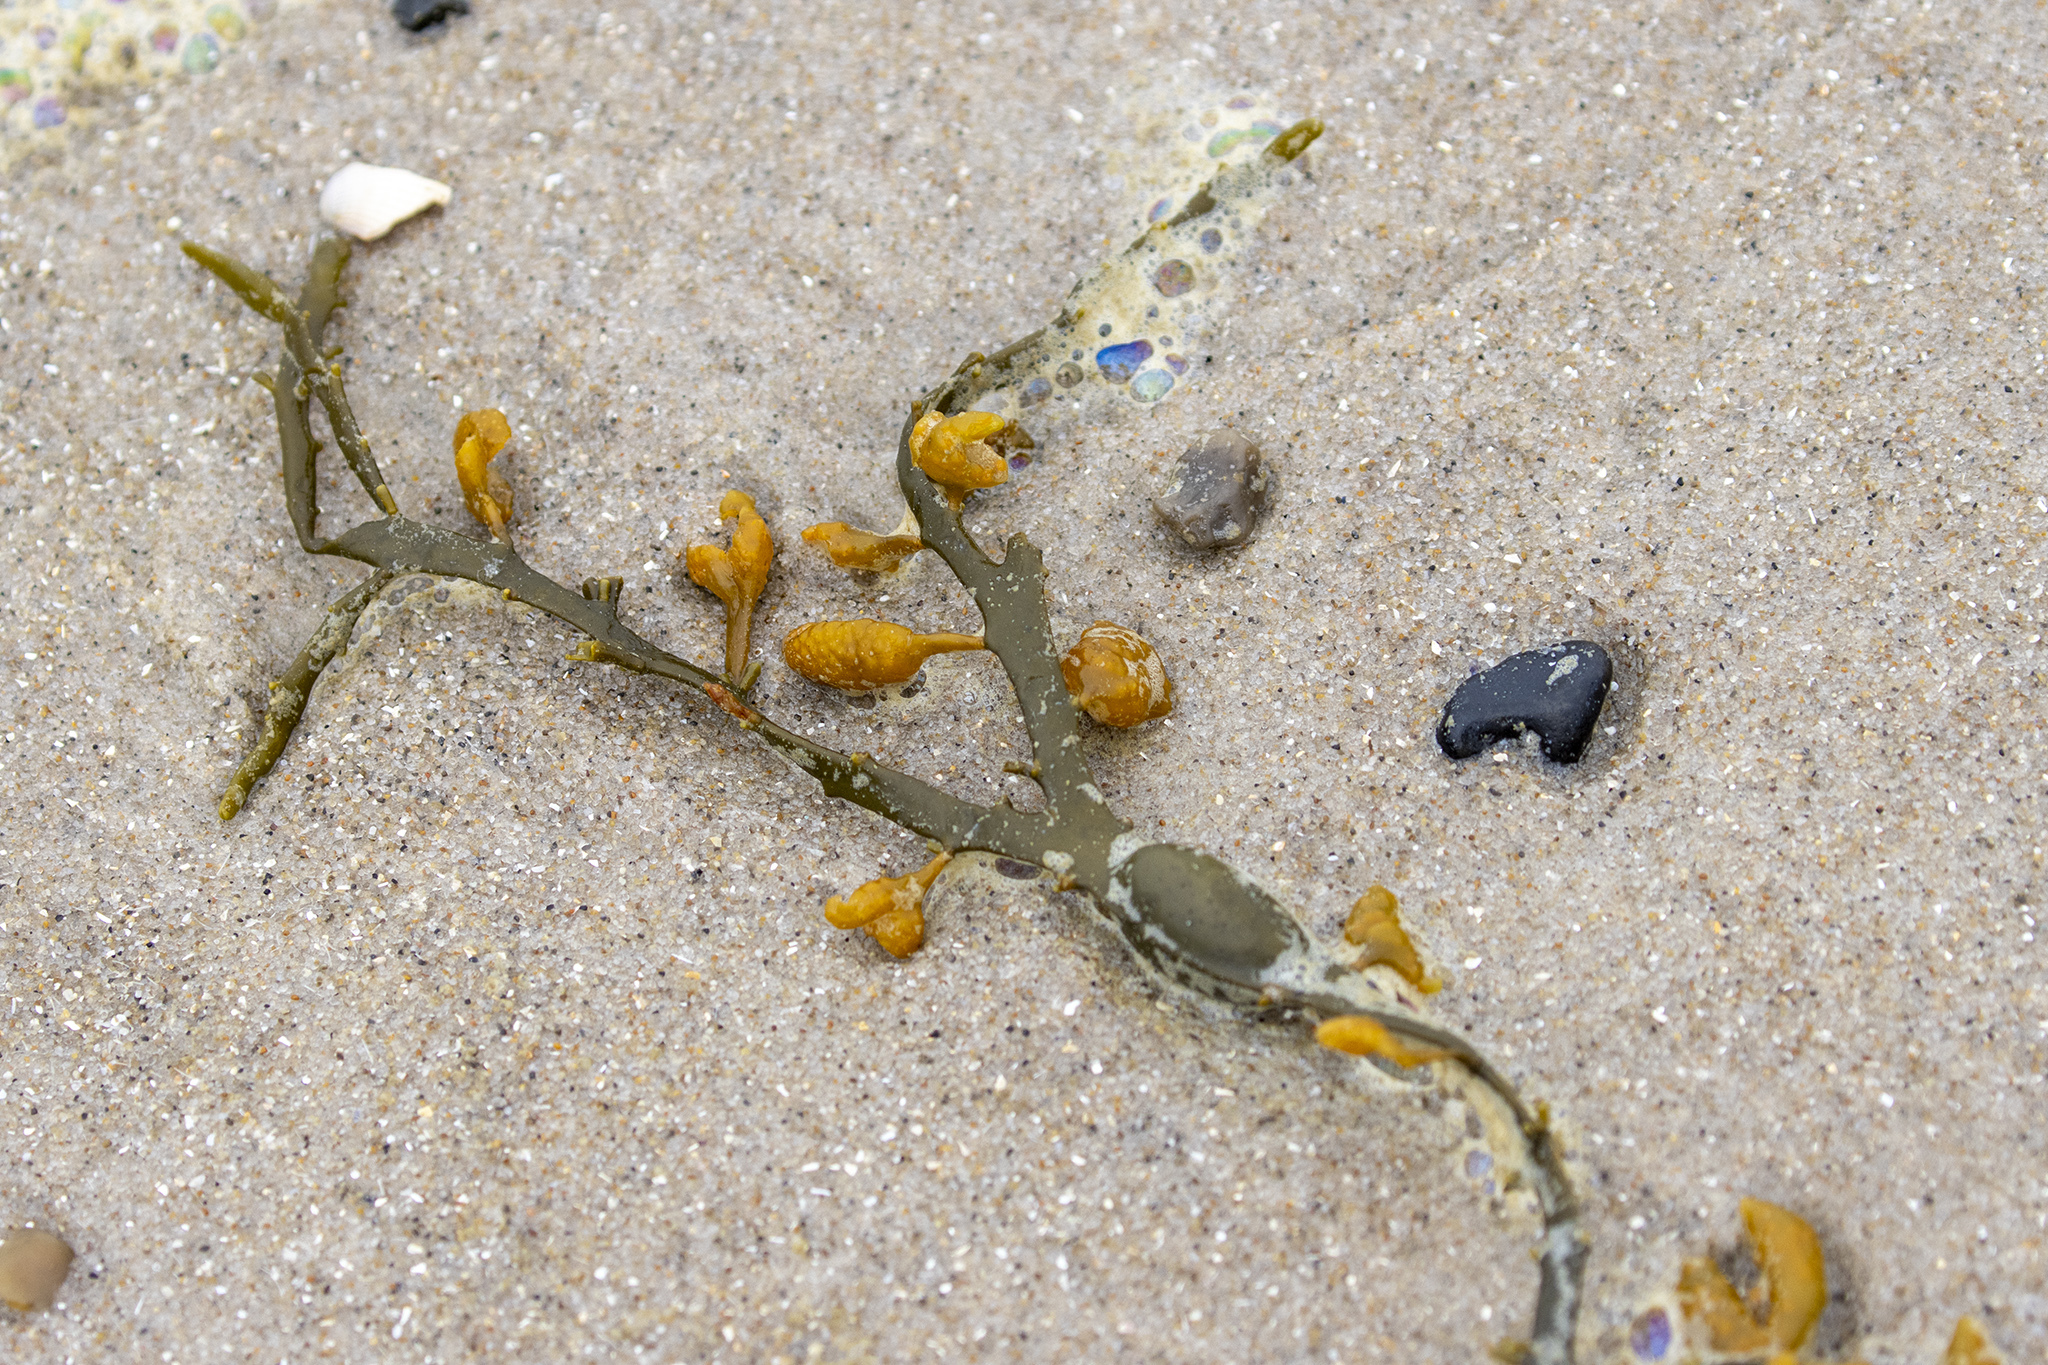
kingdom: Chromista
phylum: Ochrophyta
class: Phaeophyceae
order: Fucales
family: Fucaceae
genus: Ascophyllum
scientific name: Ascophyllum nodosum
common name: Knotted wrack
